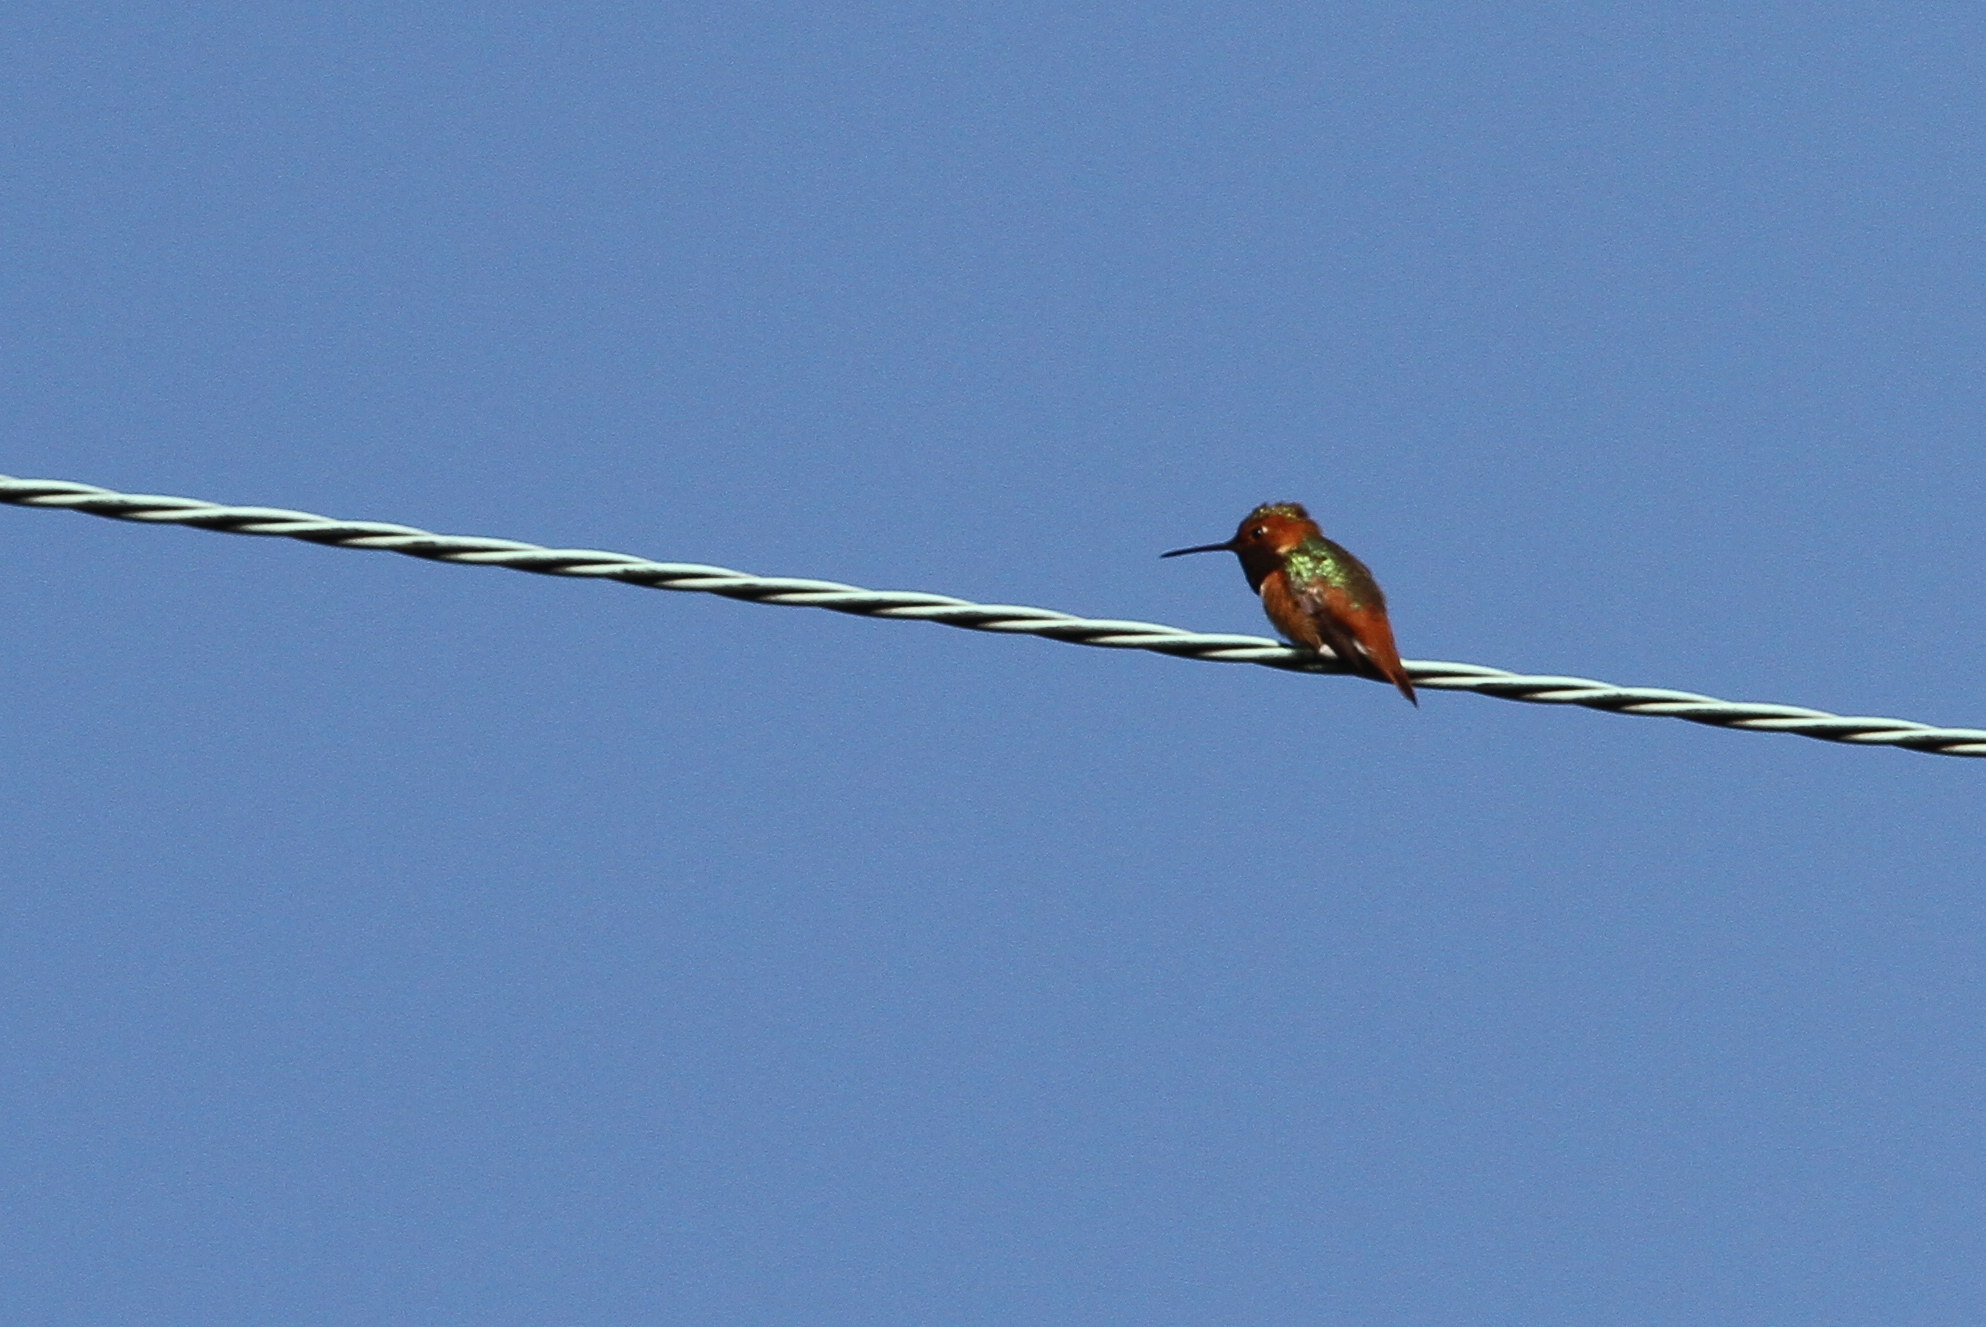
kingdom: Animalia
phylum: Chordata
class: Aves
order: Apodiformes
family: Trochilidae
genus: Selasphorus
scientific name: Selasphorus sasin
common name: Allen's hummingbird
